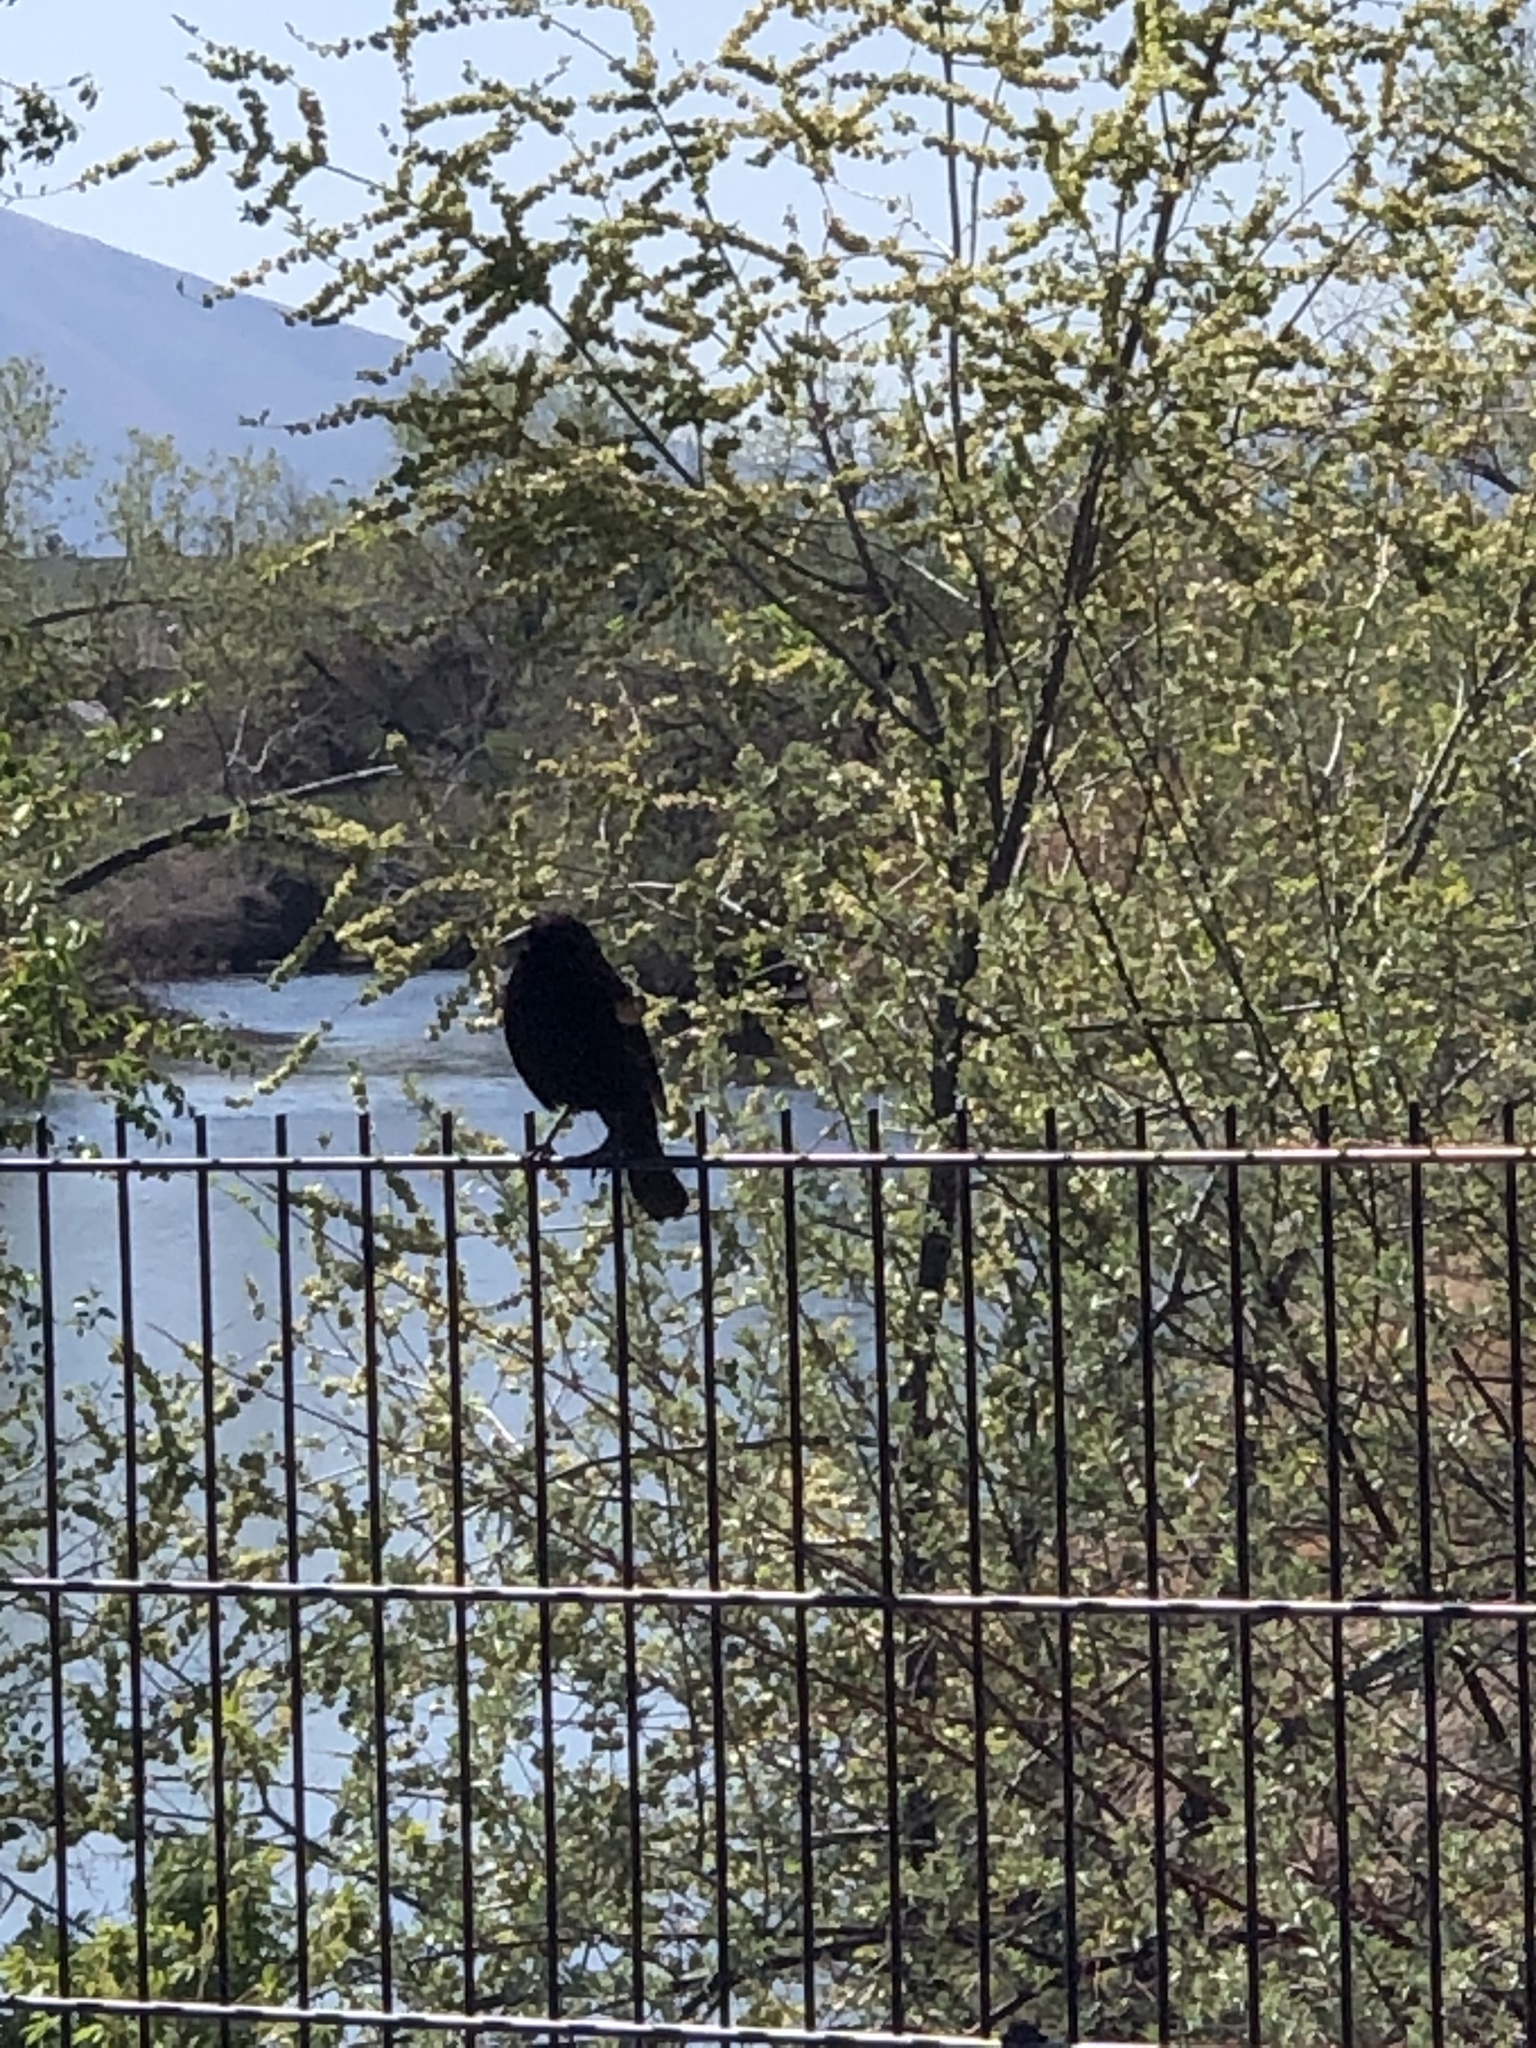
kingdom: Animalia
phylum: Chordata
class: Aves
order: Passeriformes
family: Icteridae
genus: Agelaius
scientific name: Agelaius phoeniceus
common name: Red-winged blackbird
